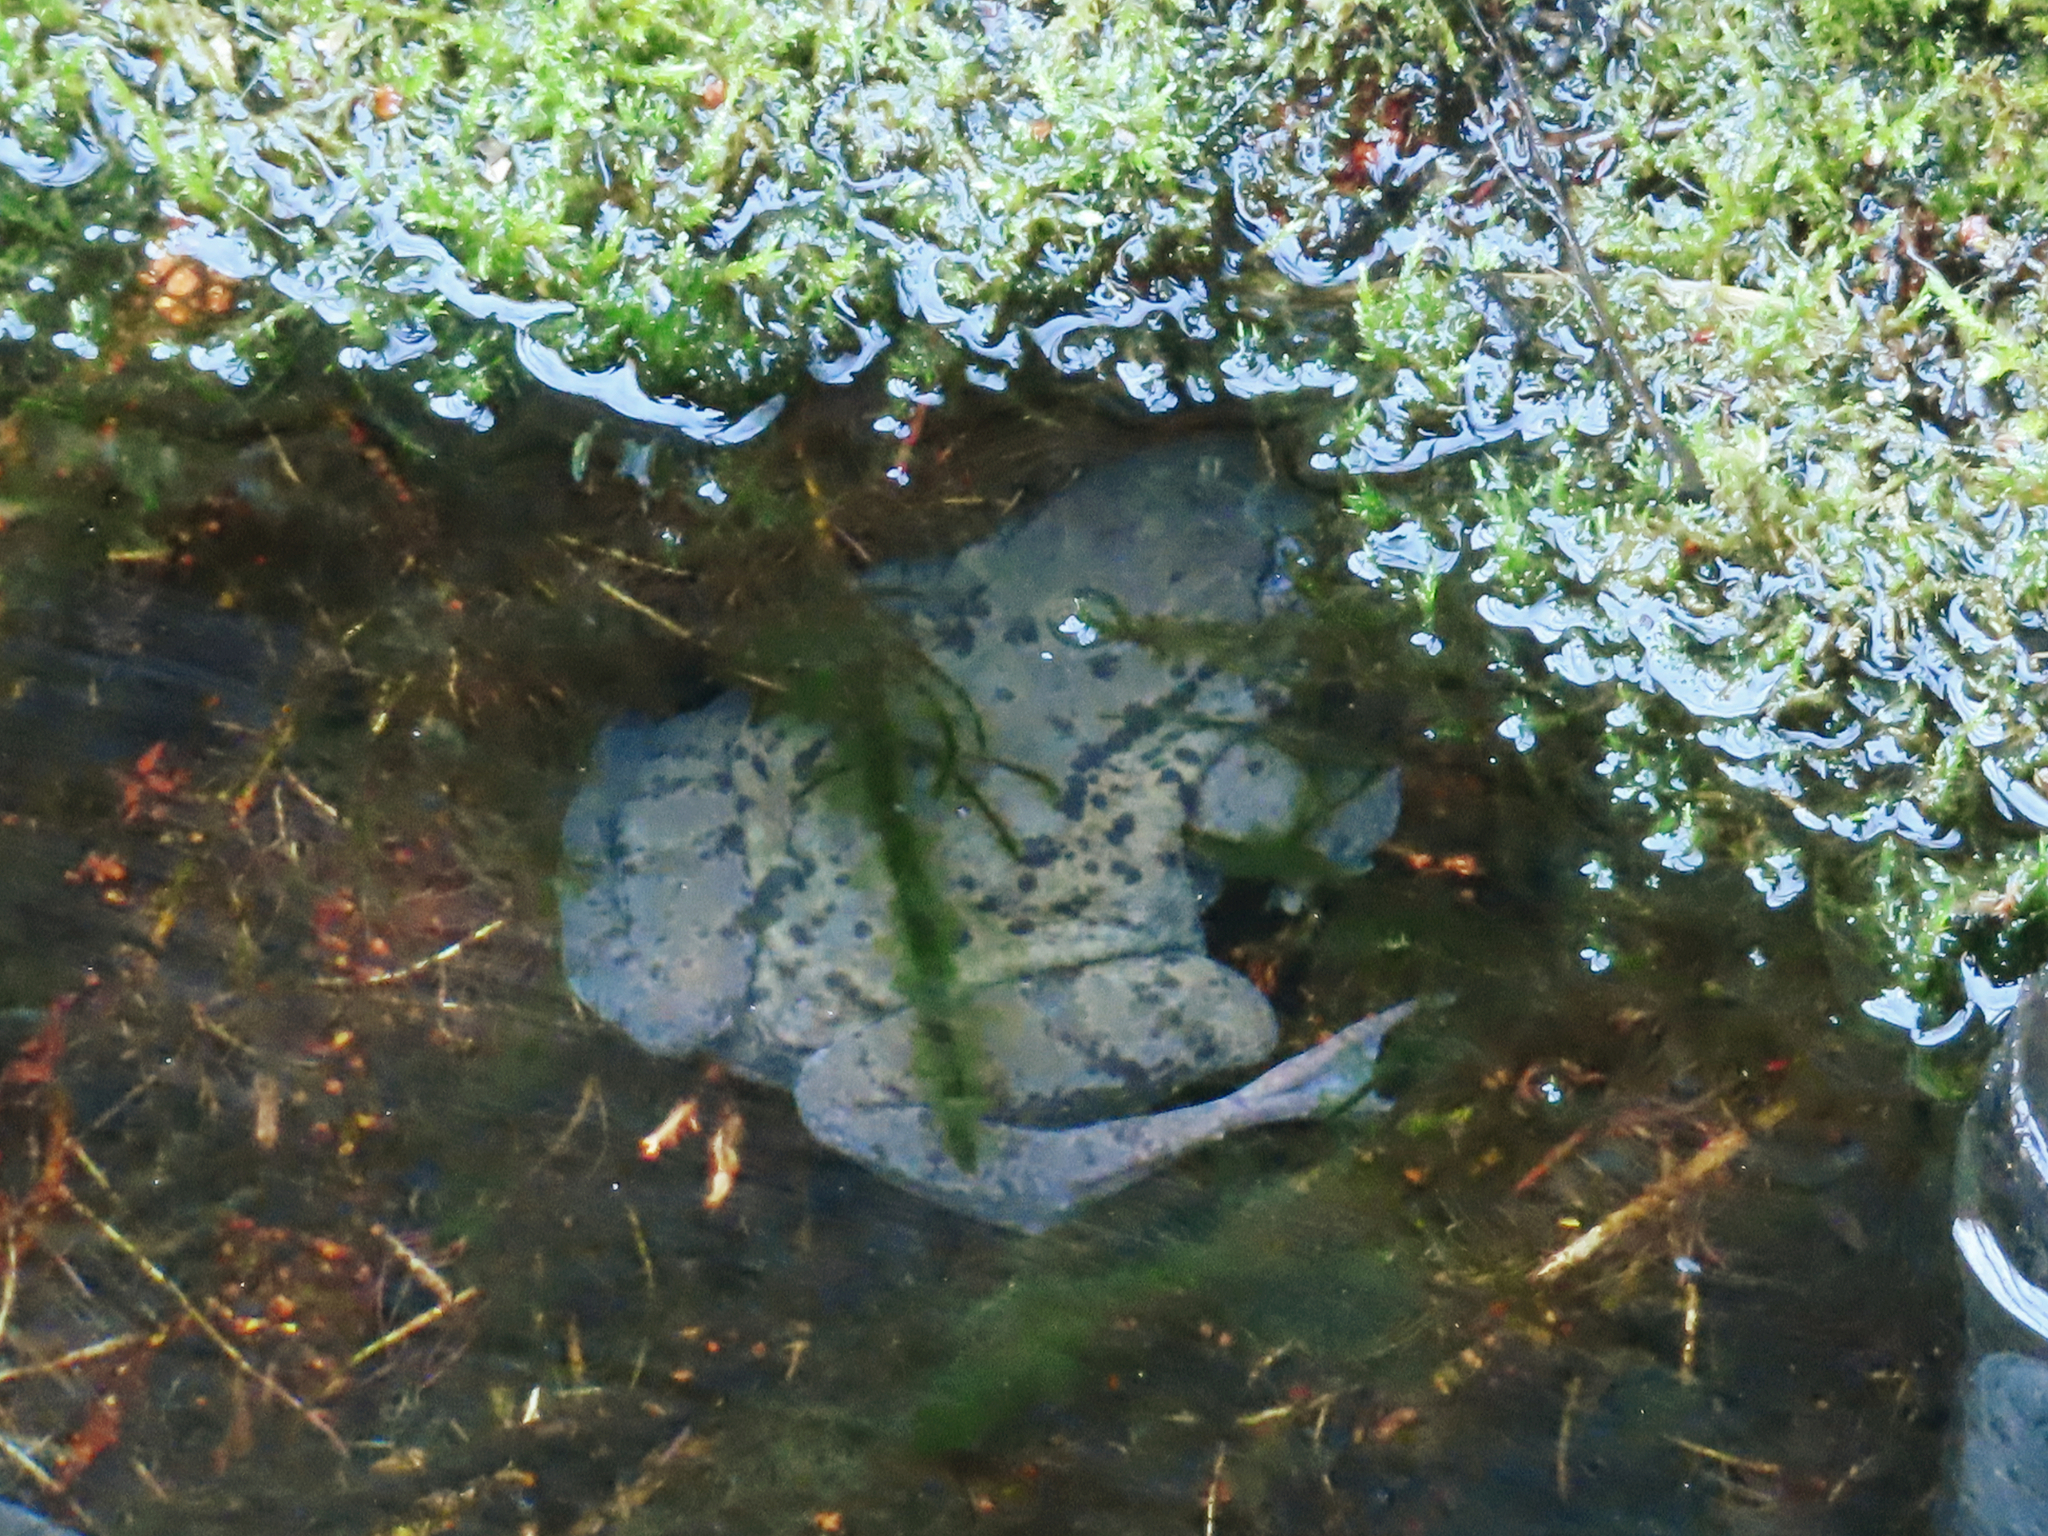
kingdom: Animalia
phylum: Chordata
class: Amphibia
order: Anura
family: Ranidae
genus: Rana
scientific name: Rana temporaria
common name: Common frog
